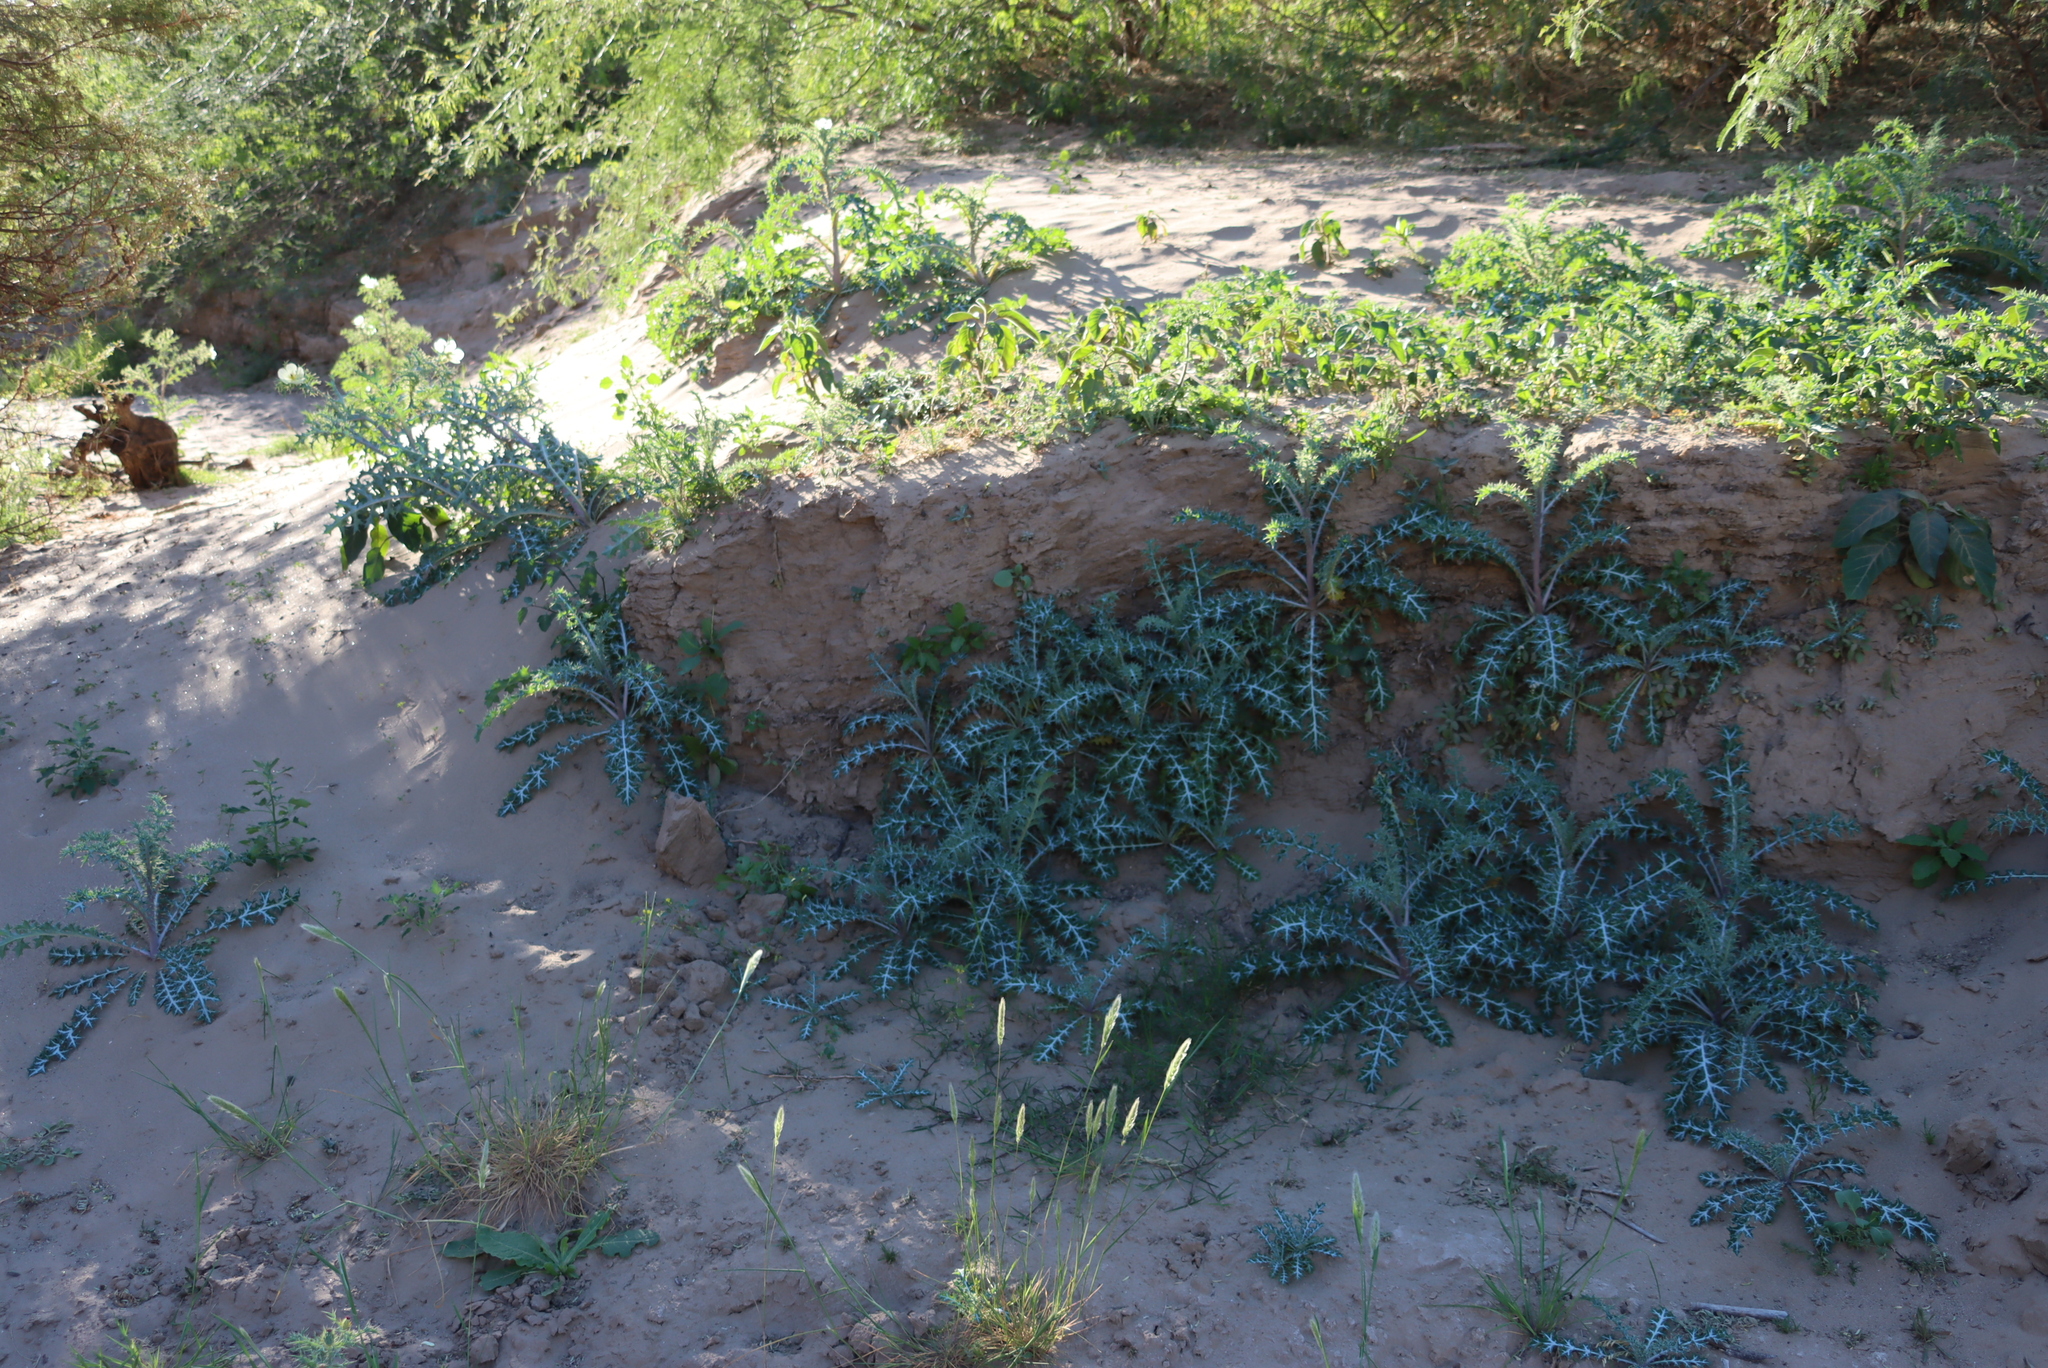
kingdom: Plantae
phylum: Tracheophyta
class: Magnoliopsida
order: Ranunculales
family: Papaveraceae
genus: Argemone
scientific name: Argemone ochroleuca
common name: White-flower mexican-poppy
